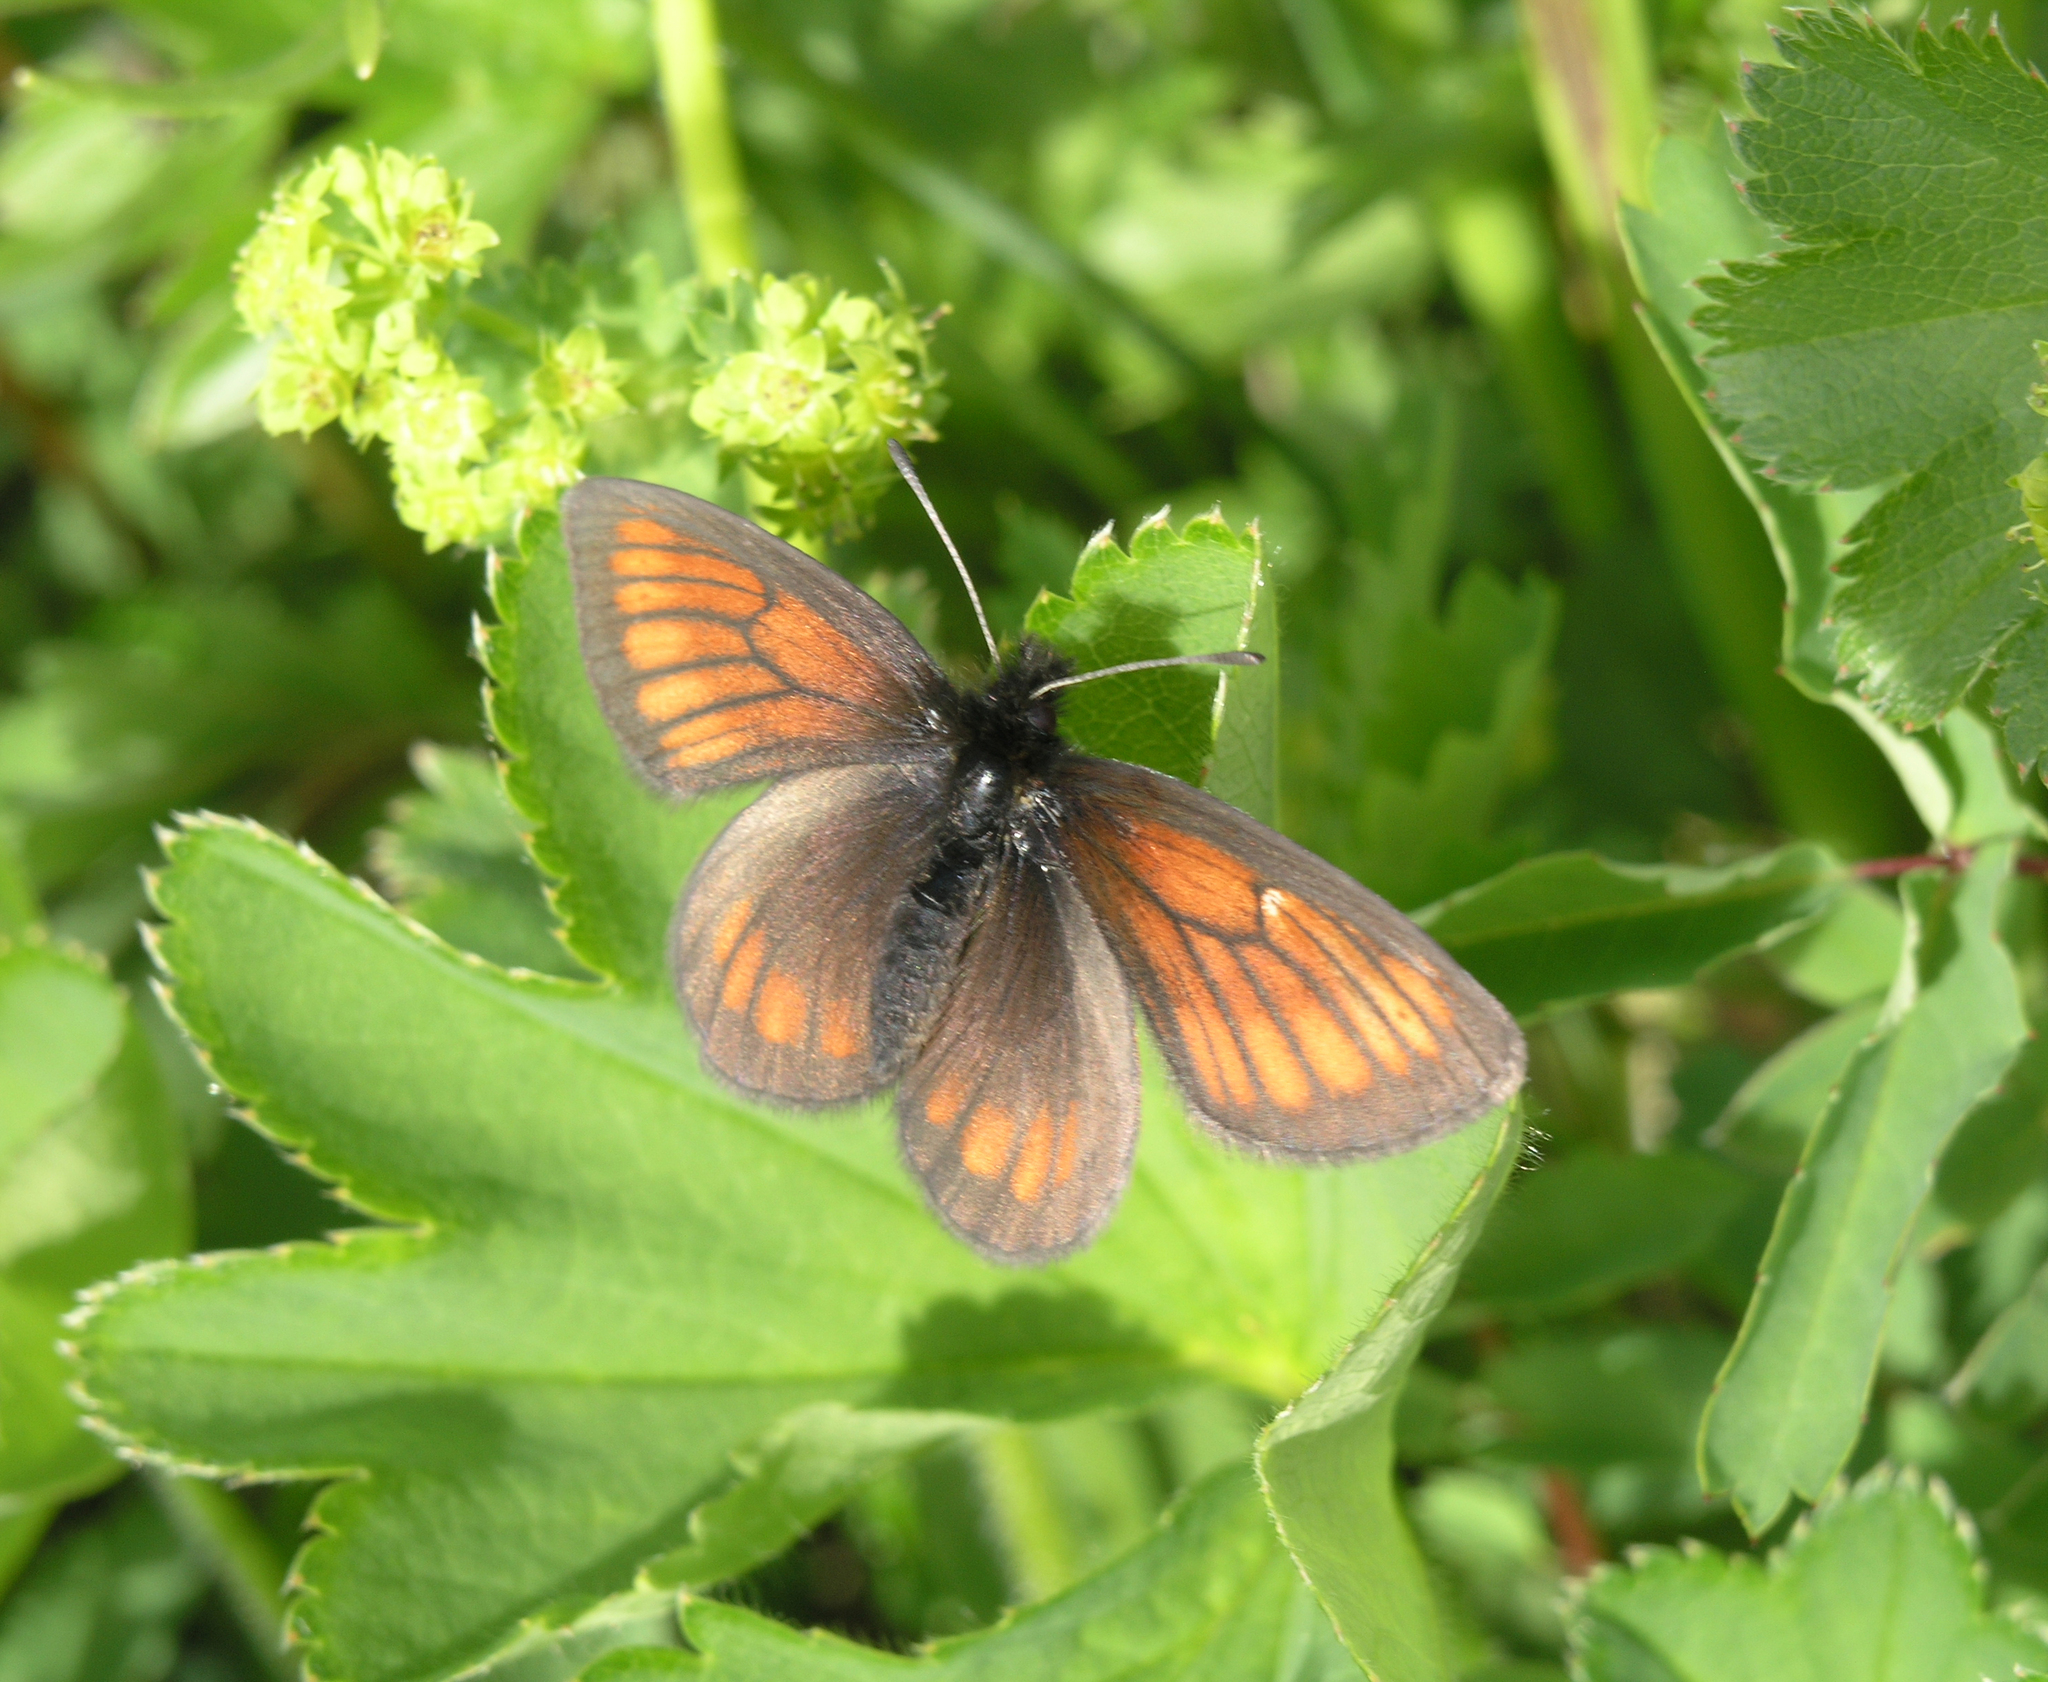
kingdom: Animalia
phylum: Arthropoda
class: Insecta
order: Lepidoptera
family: Nymphalidae
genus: Erebia
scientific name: Erebia kefersteinii
